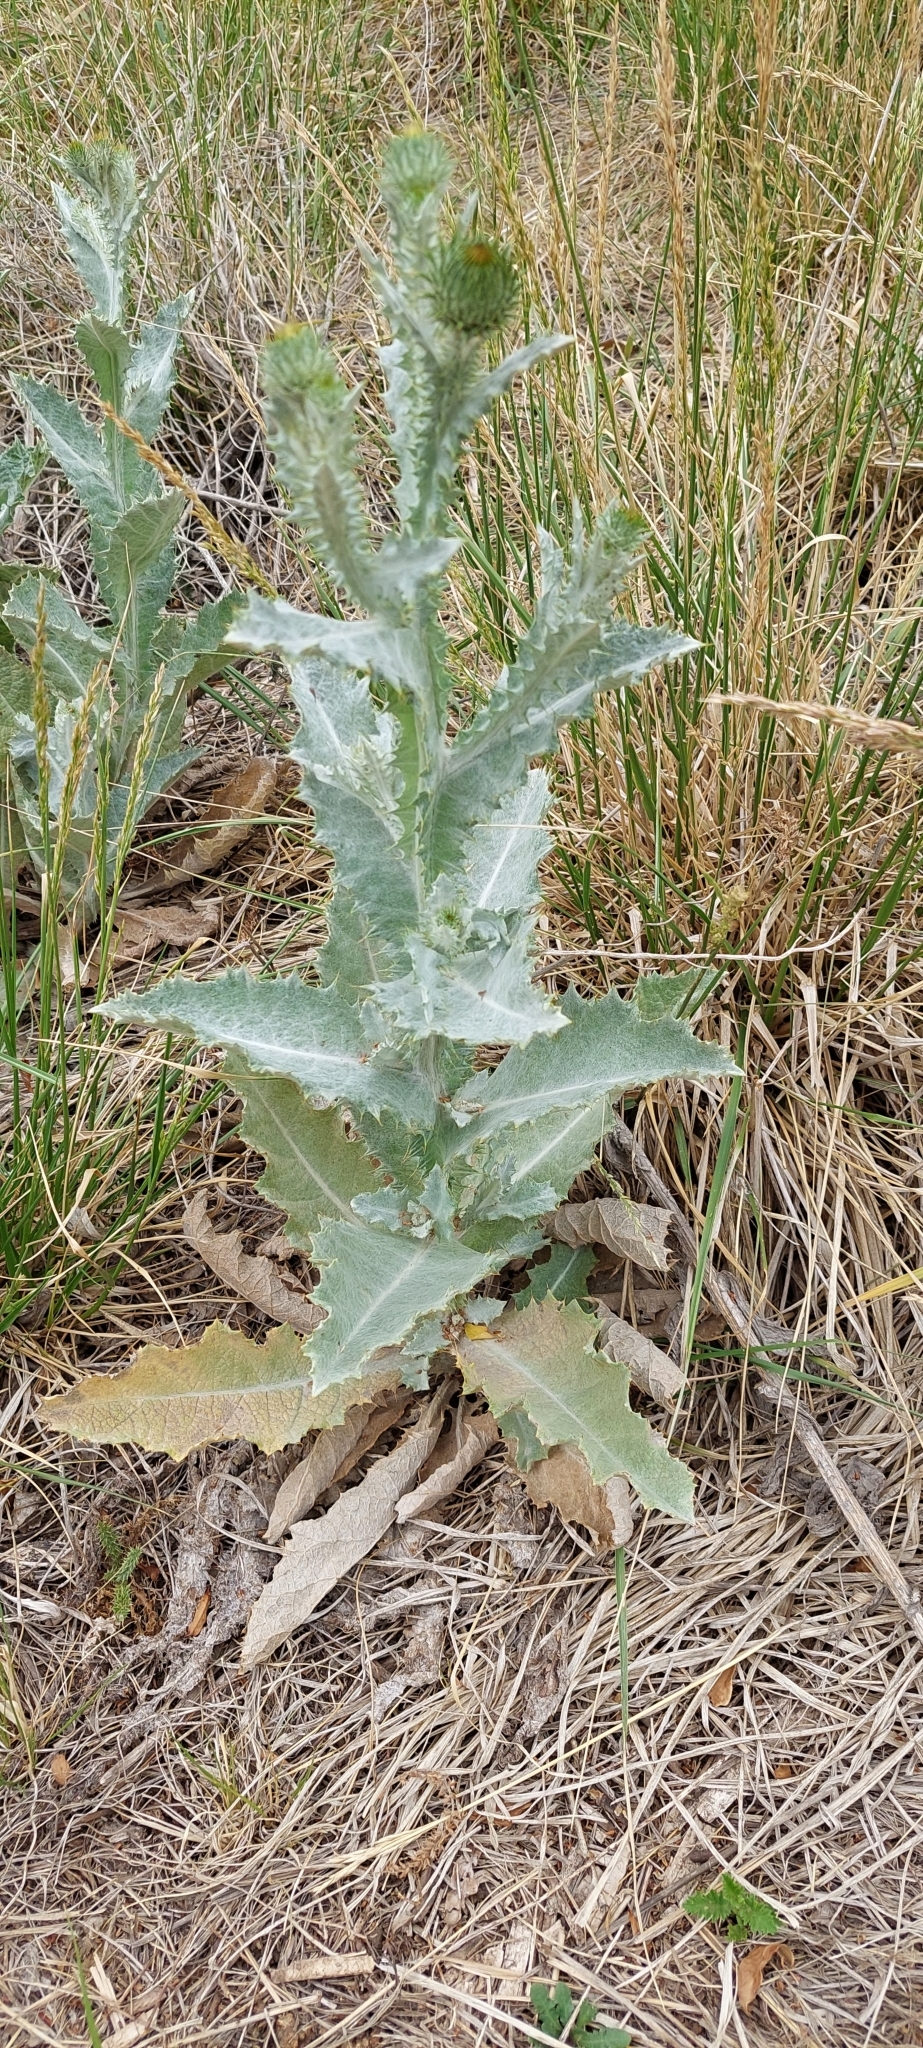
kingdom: Plantae
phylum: Tracheophyta
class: Magnoliopsida
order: Asterales
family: Asteraceae
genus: Onopordum
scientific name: Onopordum acanthium
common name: Scotch thistle
